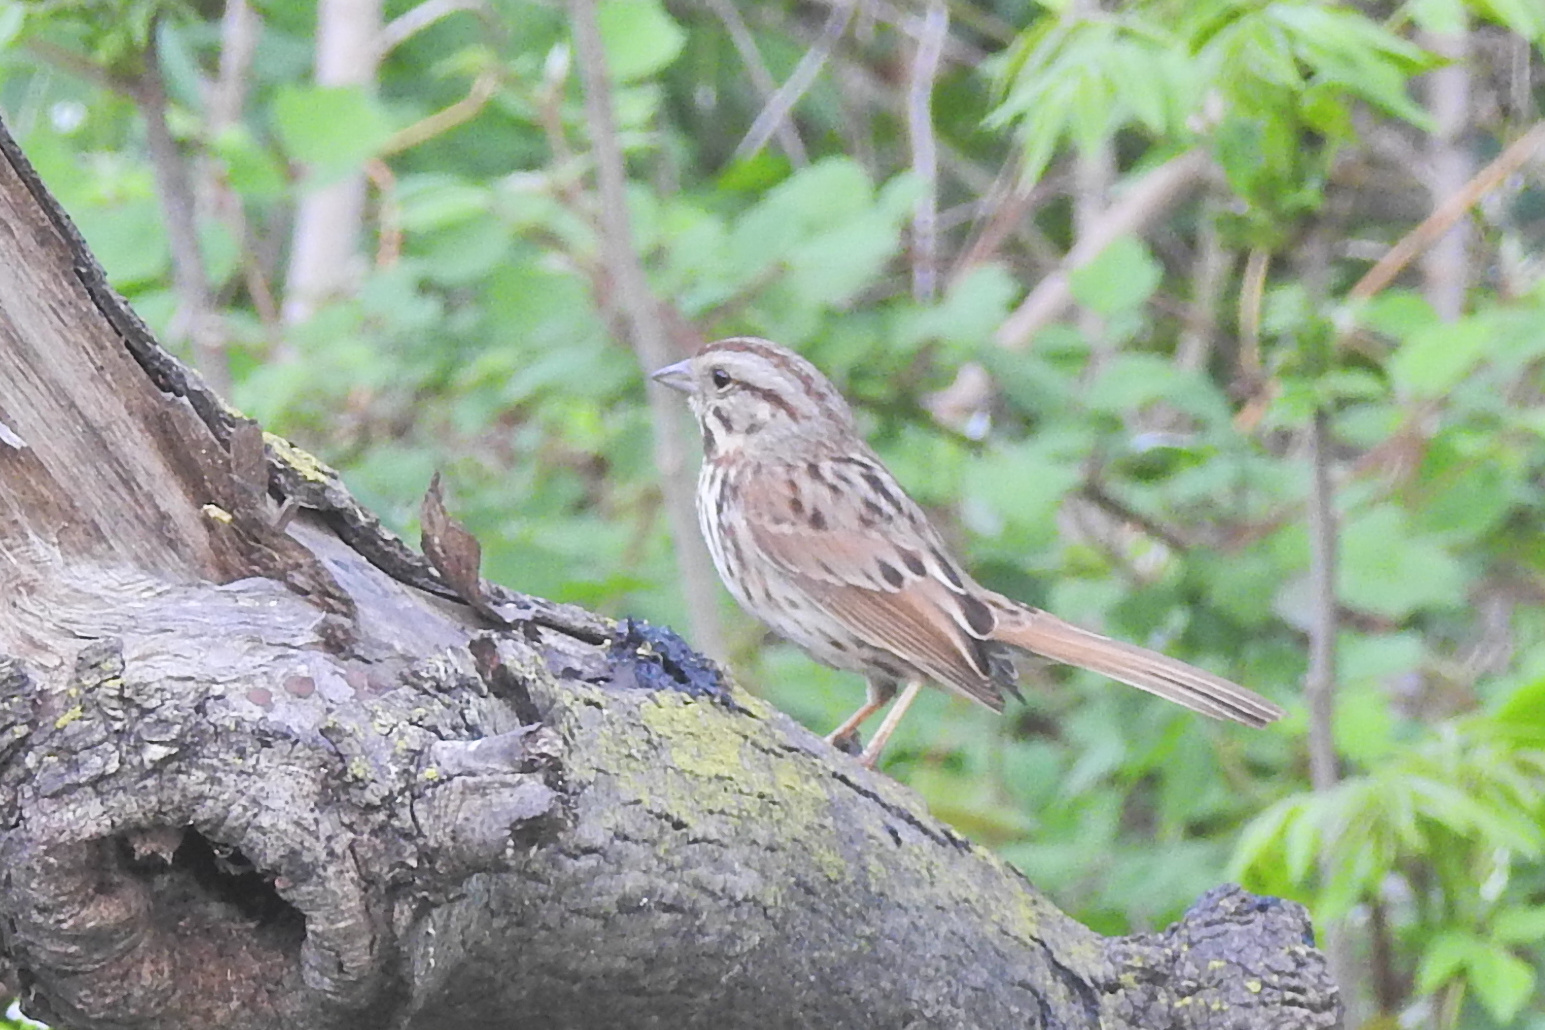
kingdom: Animalia
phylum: Chordata
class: Aves
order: Passeriformes
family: Passerellidae
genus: Melospiza
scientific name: Melospiza melodia
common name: Song sparrow
